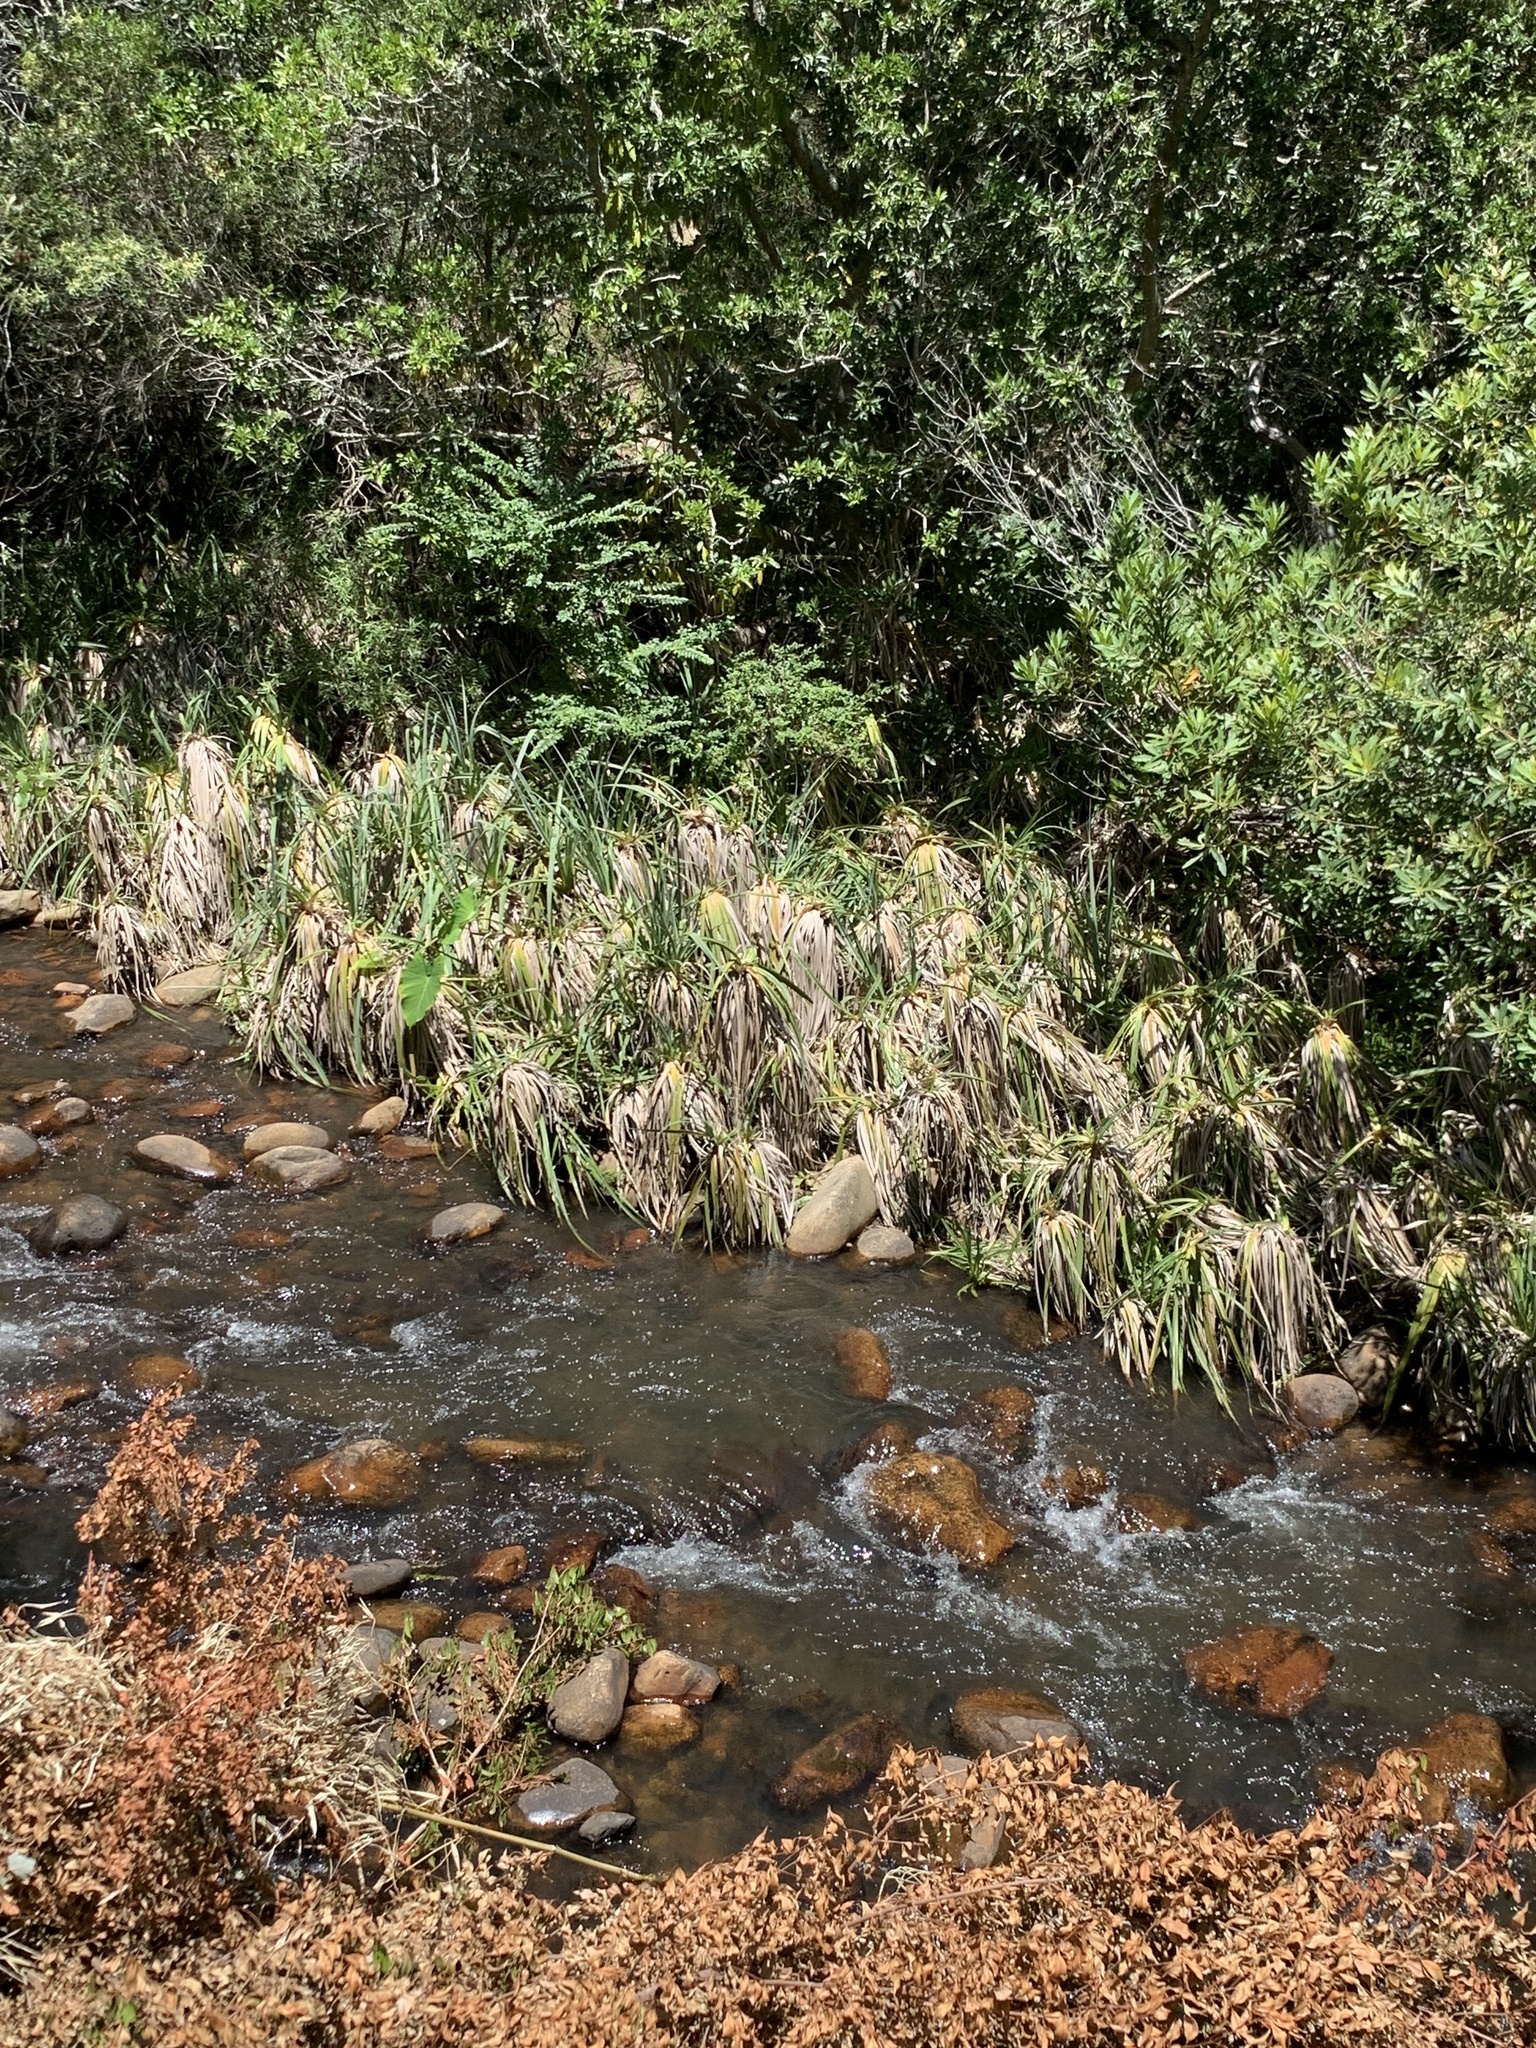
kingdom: Plantae
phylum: Tracheophyta
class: Liliopsida
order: Poales
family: Thurniaceae
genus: Prionium
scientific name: Prionium serratum
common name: Palmiet
